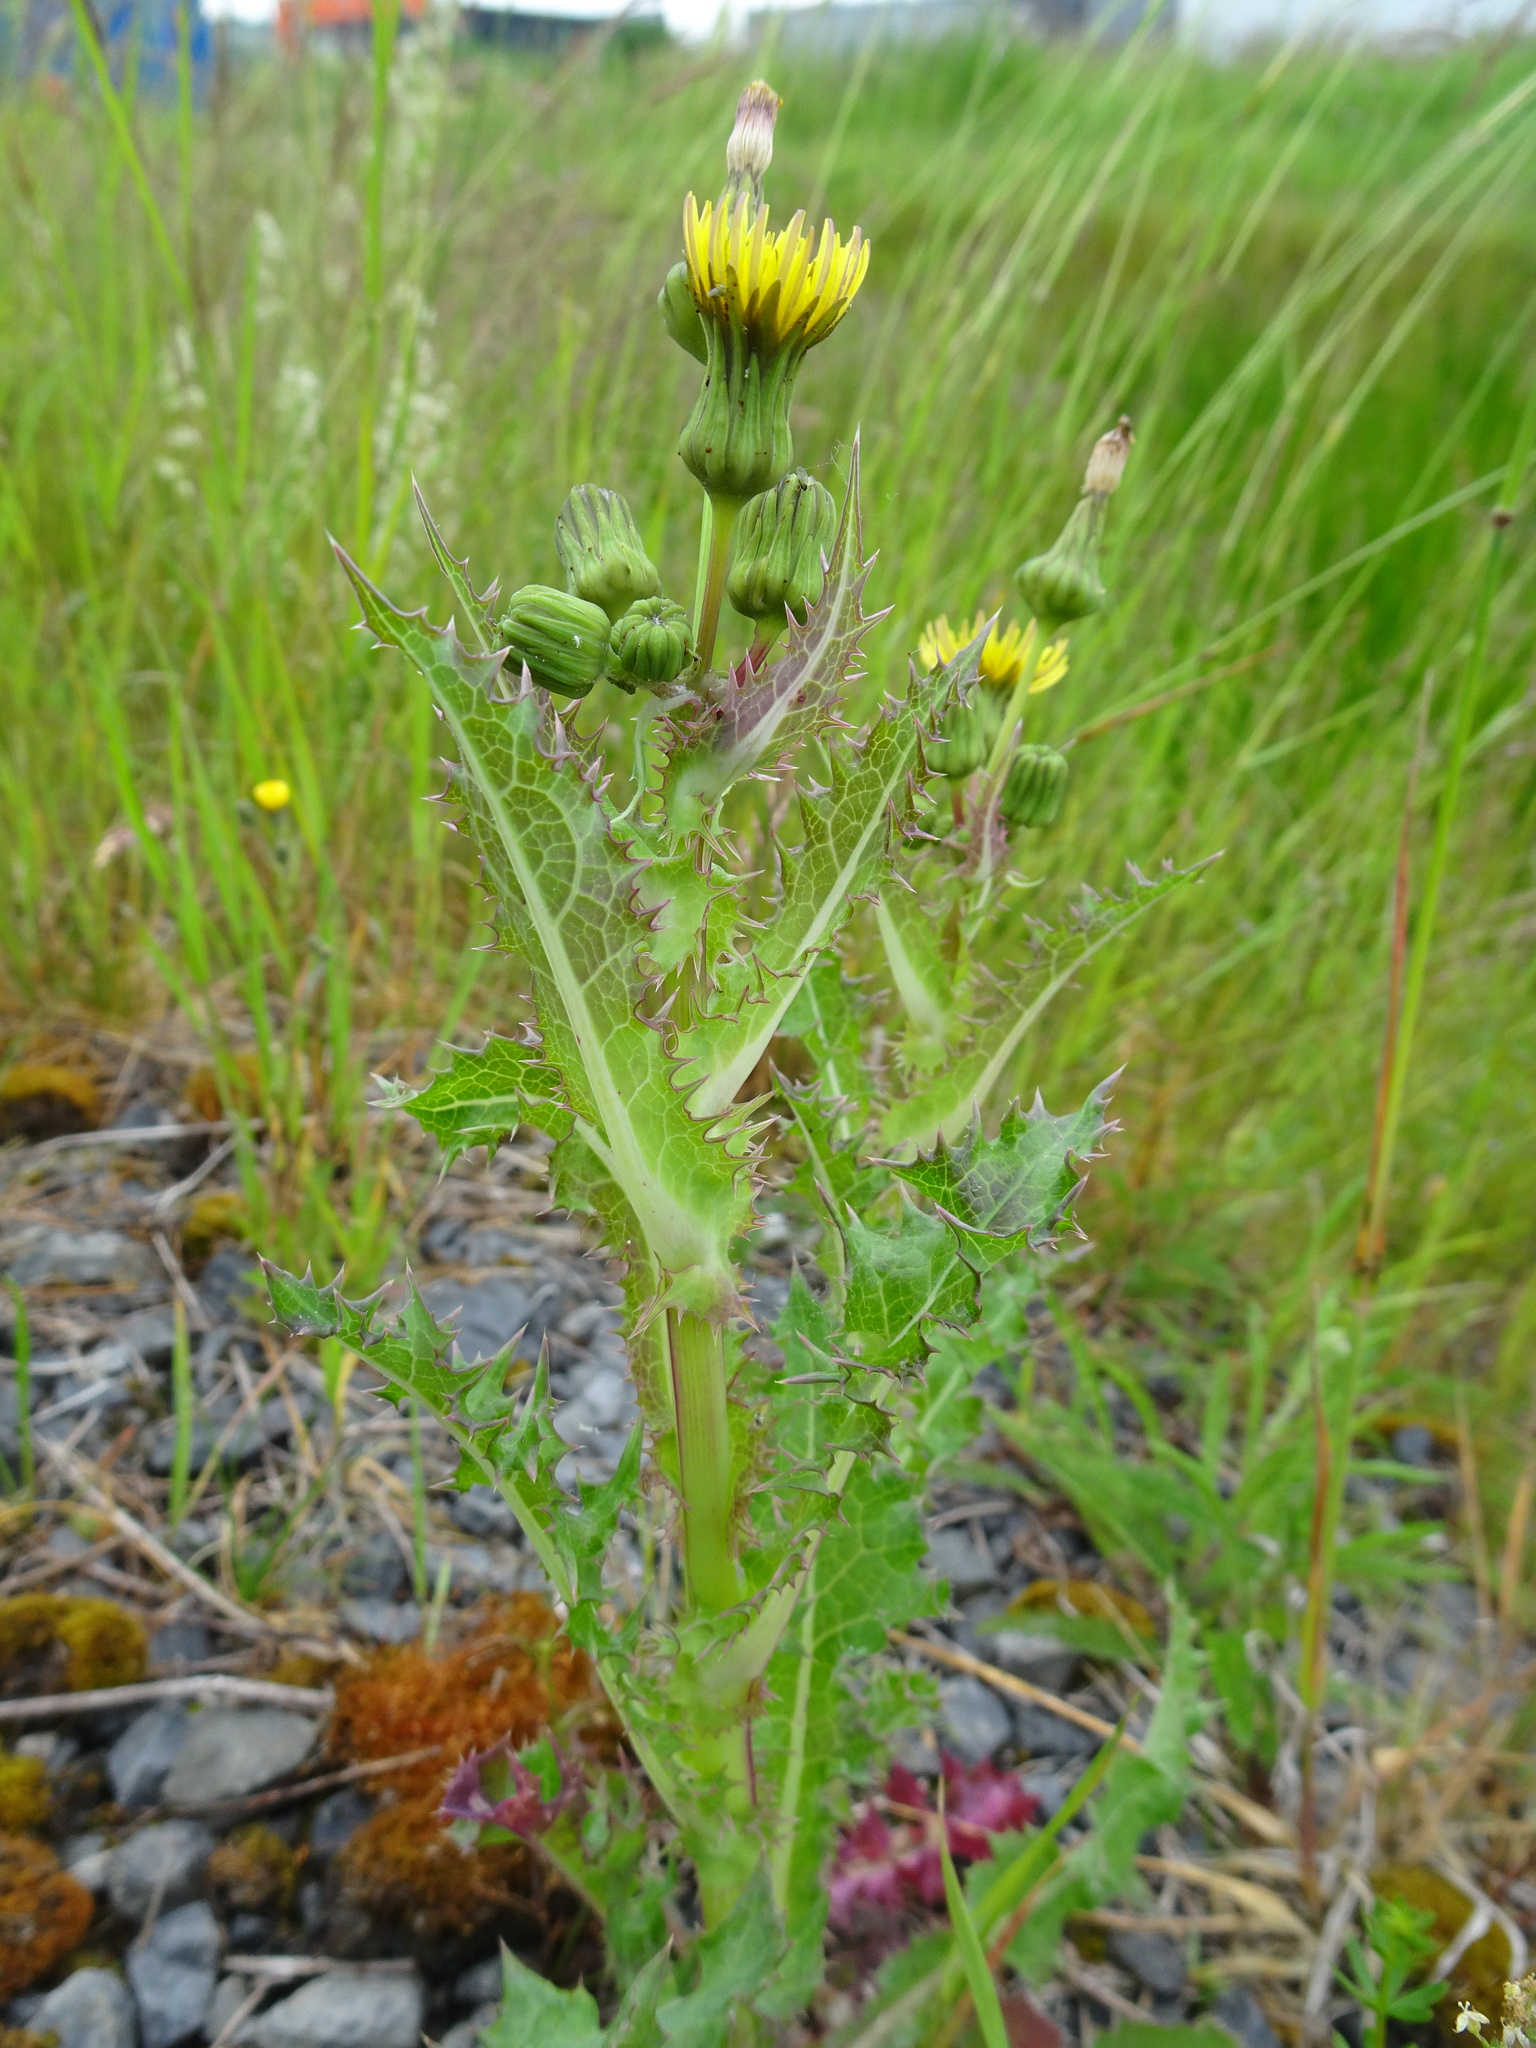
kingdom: Plantae
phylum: Tracheophyta
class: Magnoliopsida
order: Asterales
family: Asteraceae
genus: Sonchus
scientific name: Sonchus asper
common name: Prickly sow-thistle
